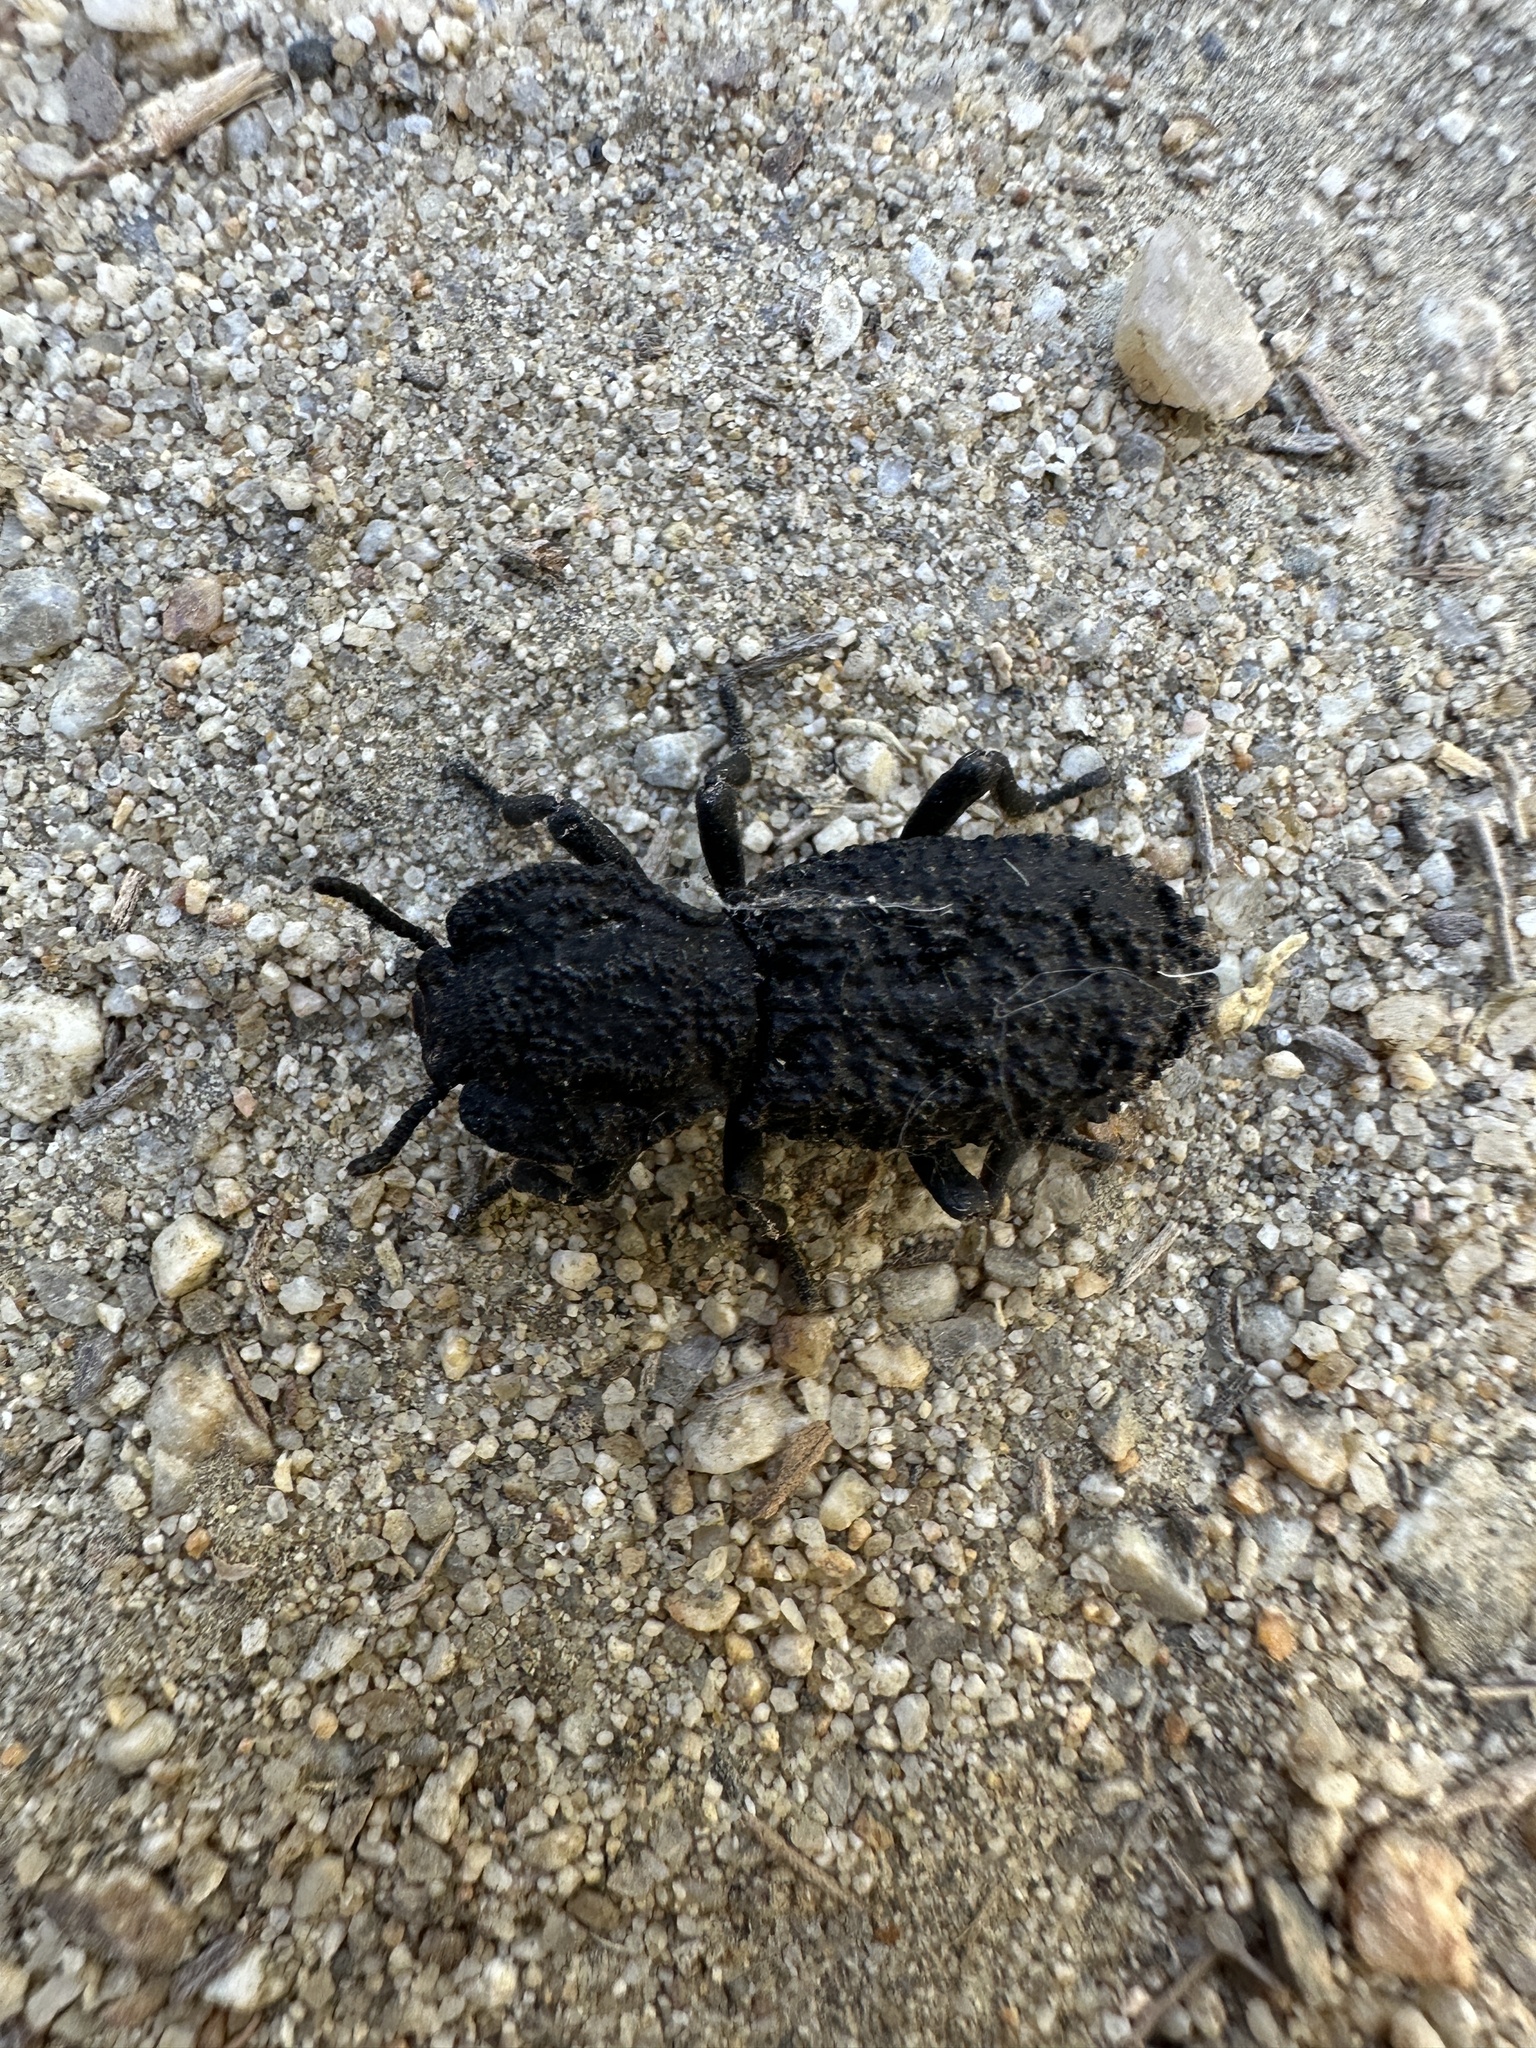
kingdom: Animalia
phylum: Arthropoda
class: Insecta
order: Coleoptera
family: Zopheridae
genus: Phloeodes
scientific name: Phloeodes diabolicus
